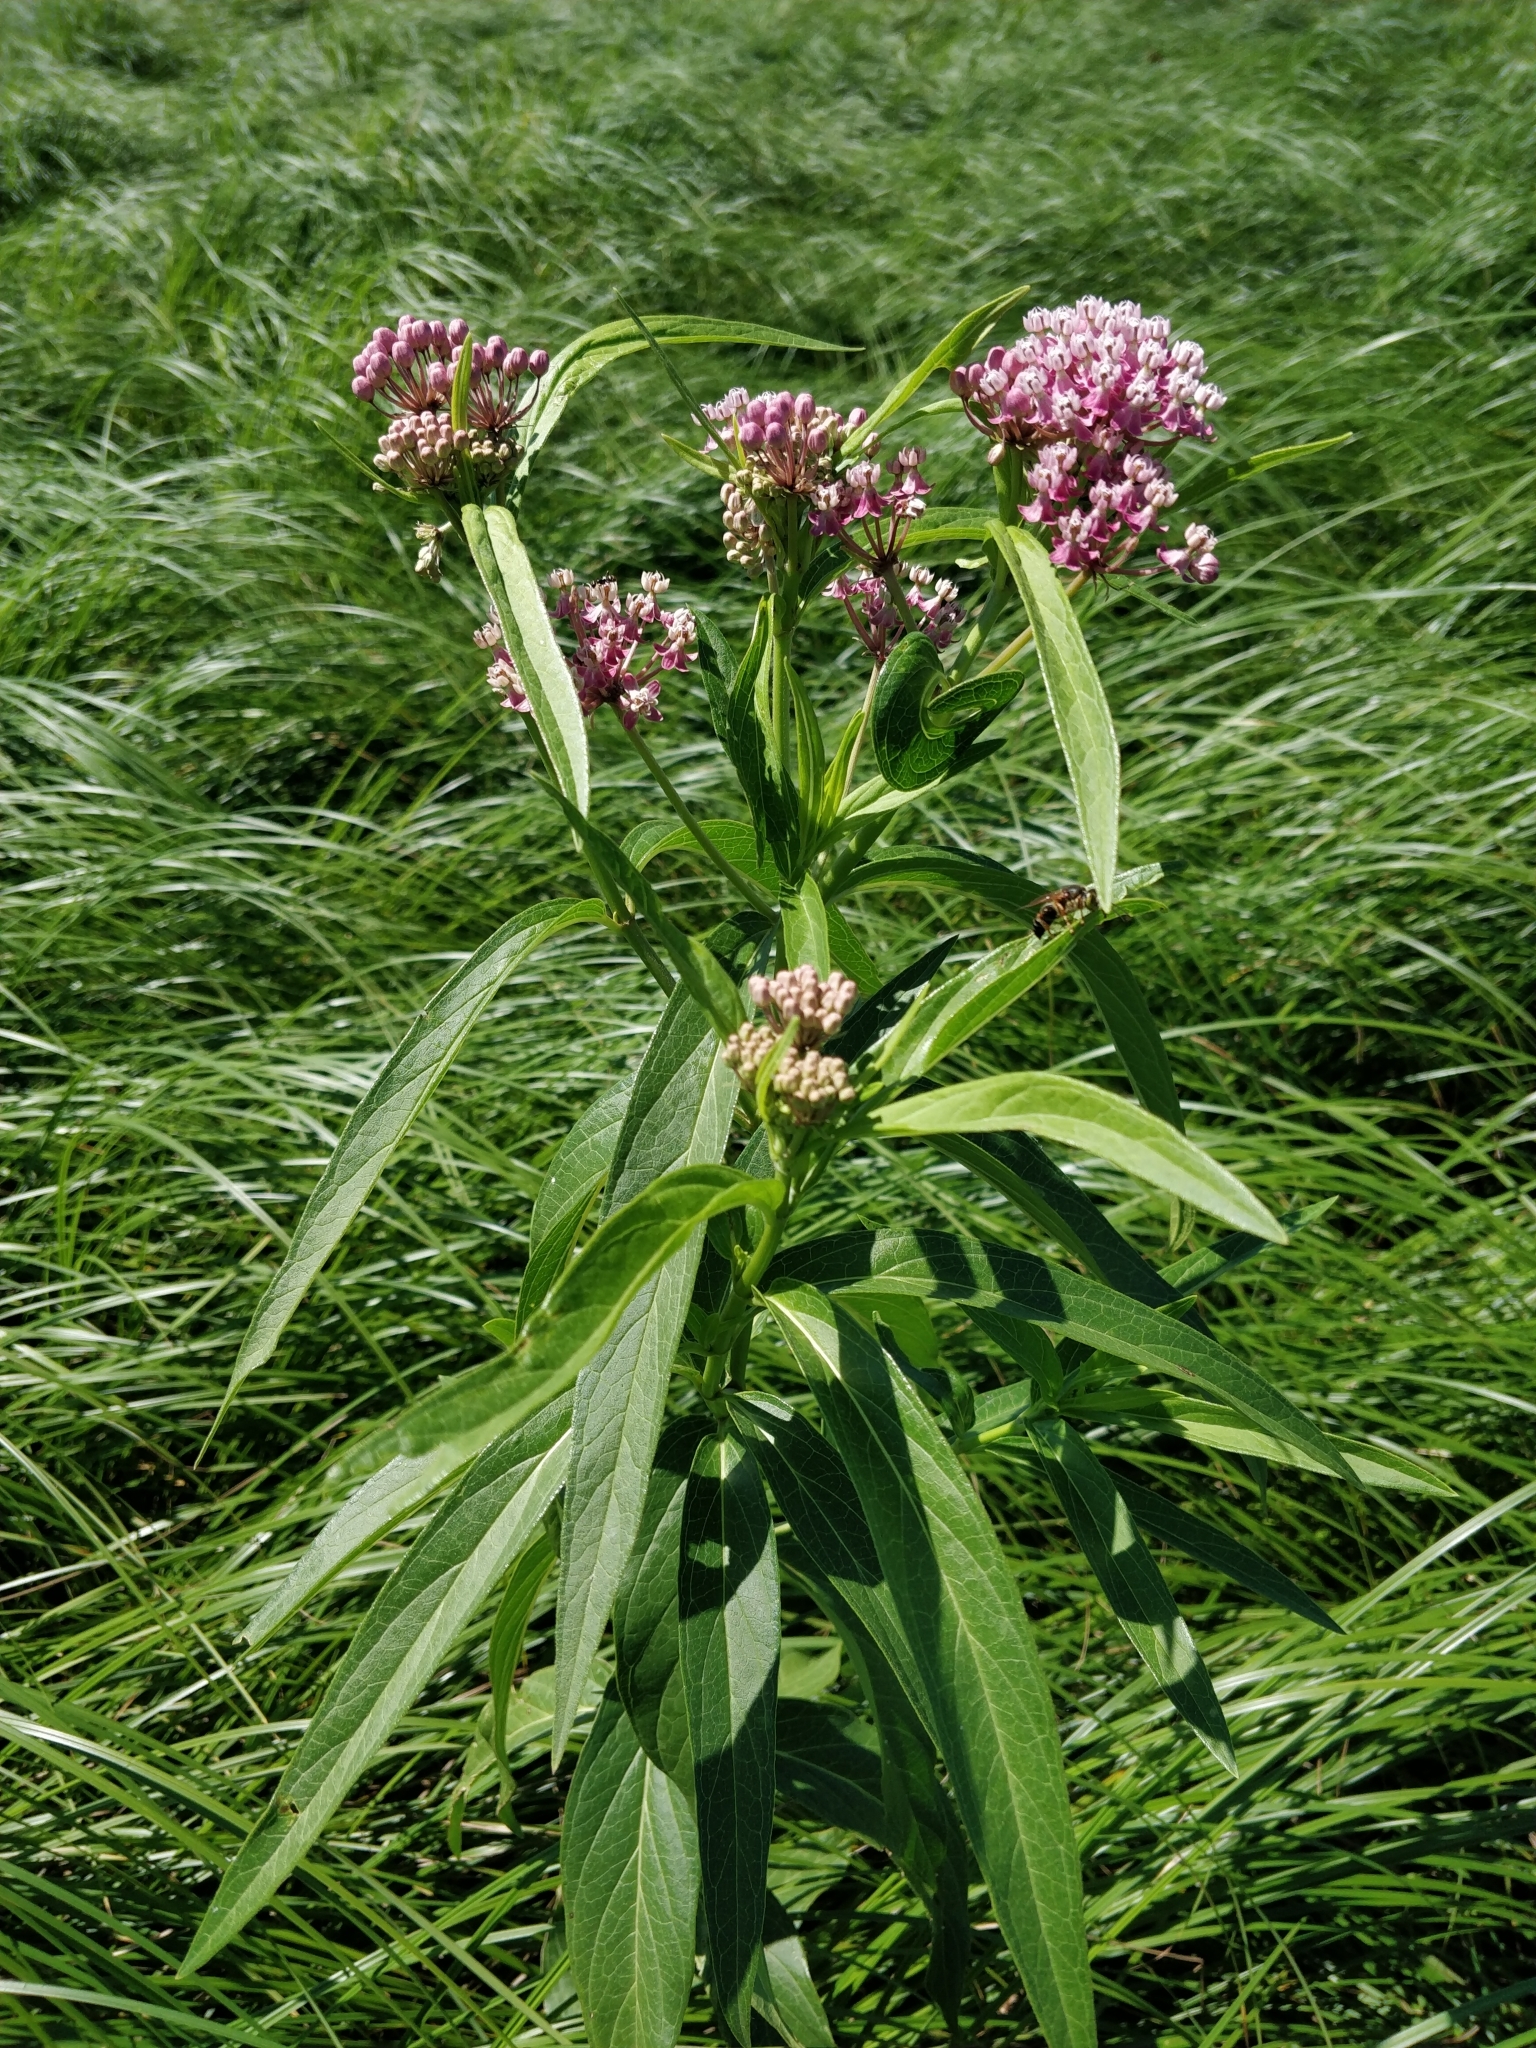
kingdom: Plantae
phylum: Tracheophyta
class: Magnoliopsida
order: Gentianales
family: Apocynaceae
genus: Asclepias
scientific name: Asclepias incarnata
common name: Swamp milkweed
